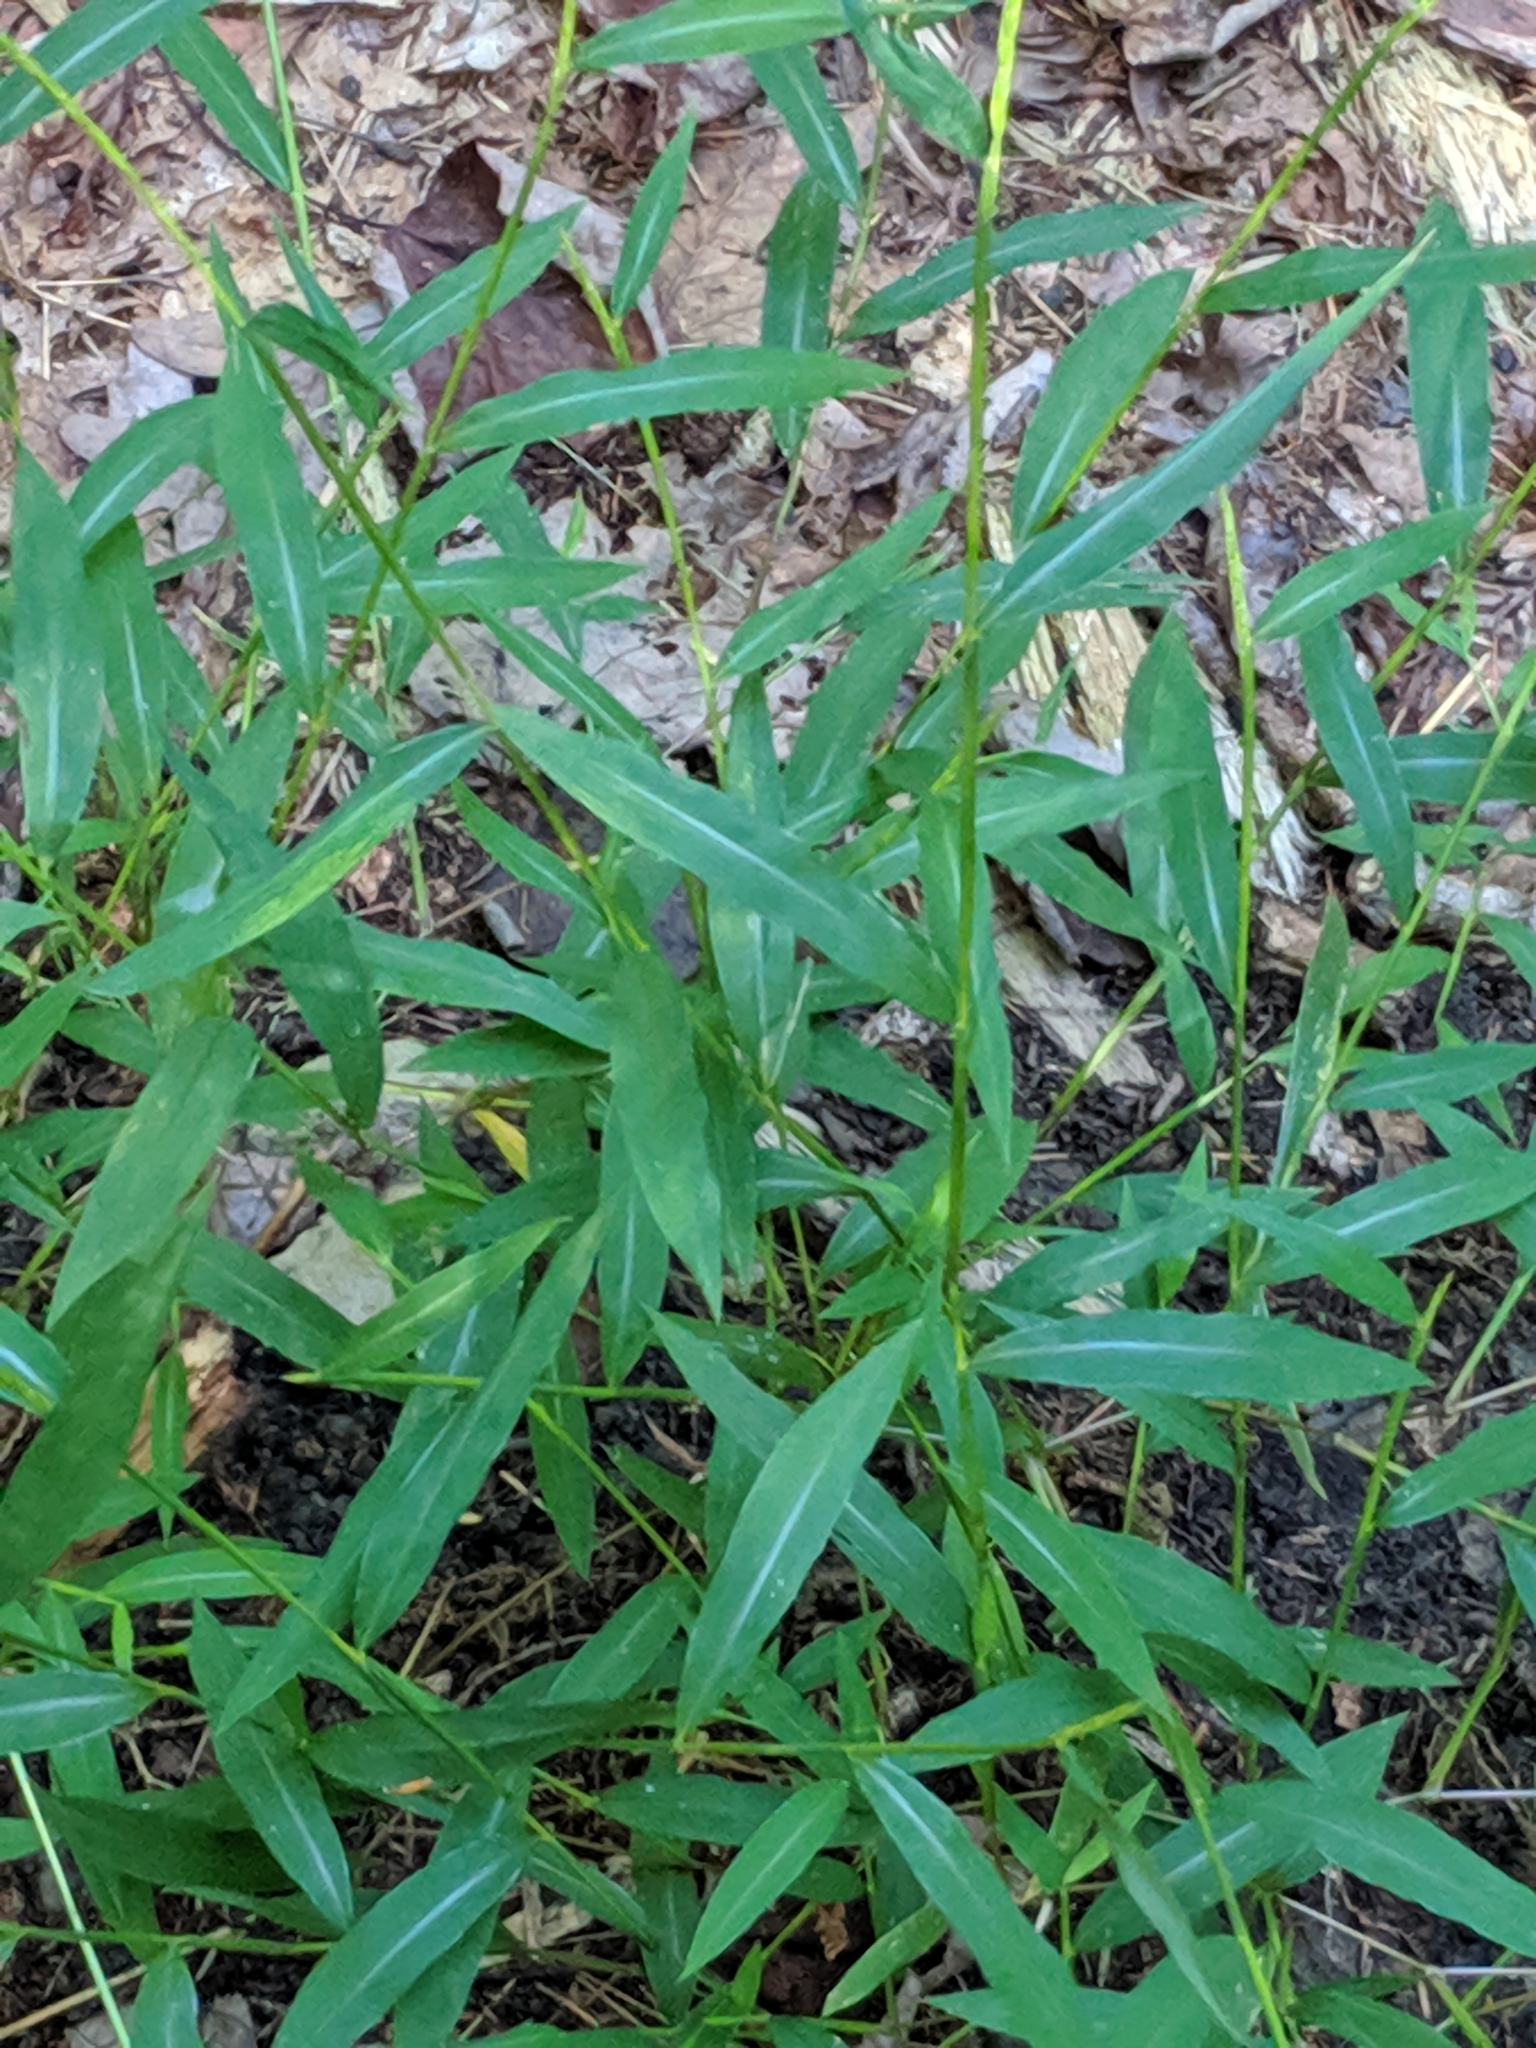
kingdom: Plantae
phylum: Tracheophyta
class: Liliopsida
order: Poales
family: Poaceae
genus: Microstegium
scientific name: Microstegium vimineum
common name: Japanese stiltgrass
